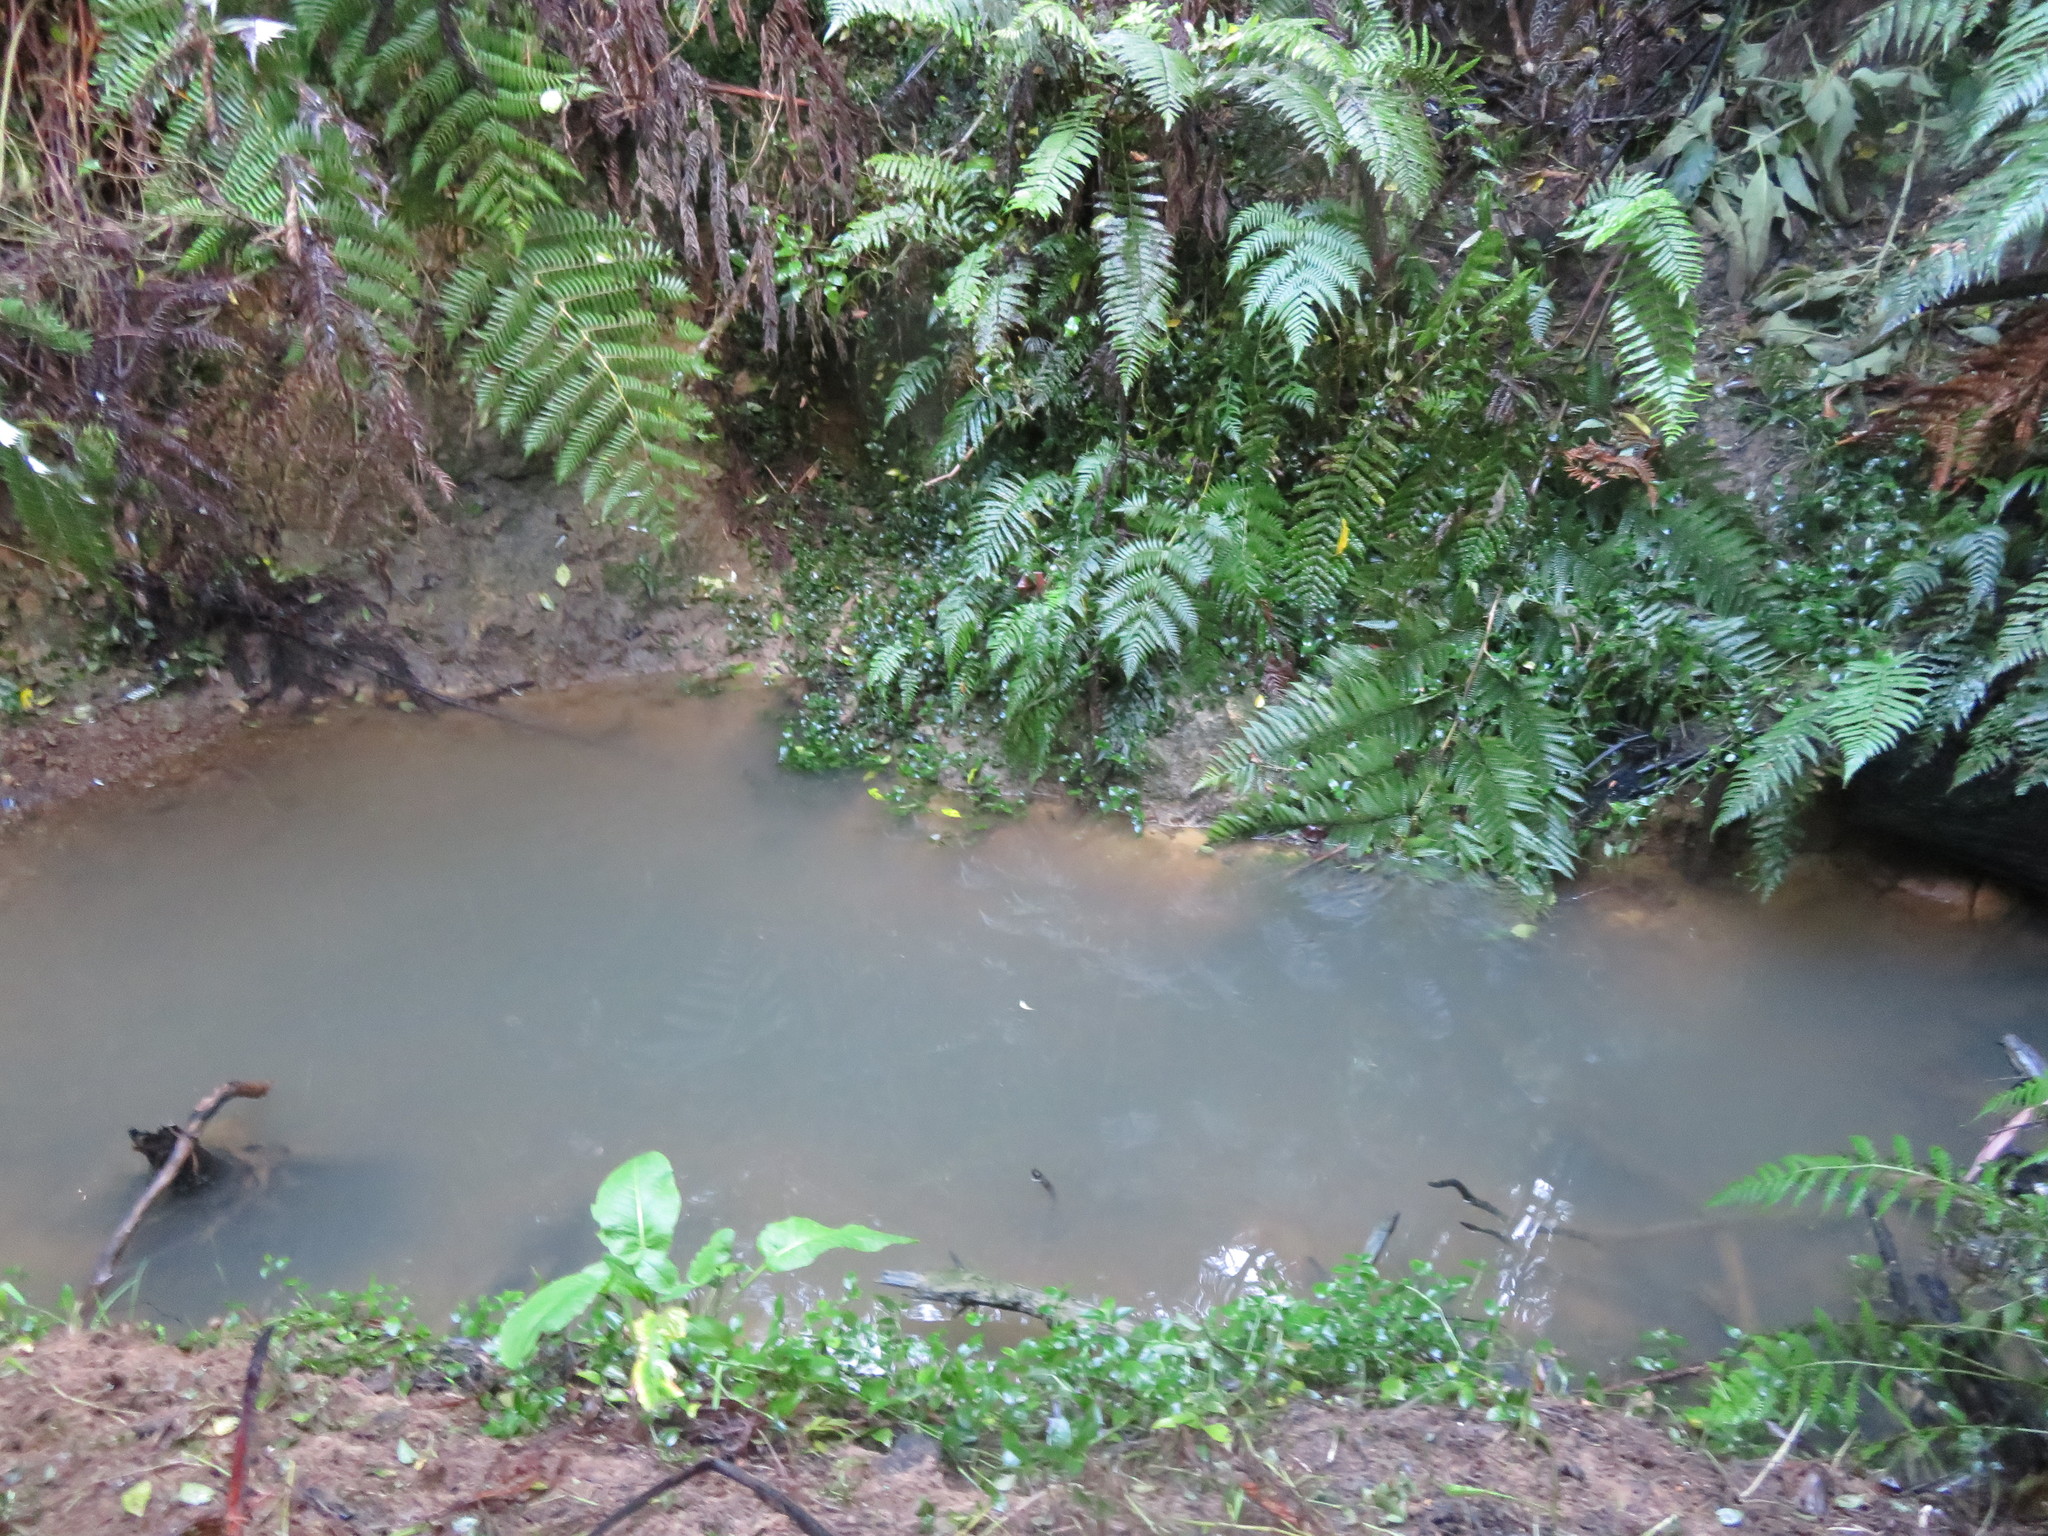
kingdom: Plantae
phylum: Tracheophyta
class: Liliopsida
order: Commelinales
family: Commelinaceae
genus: Tradescantia
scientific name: Tradescantia fluminensis
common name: Wandering-jew
